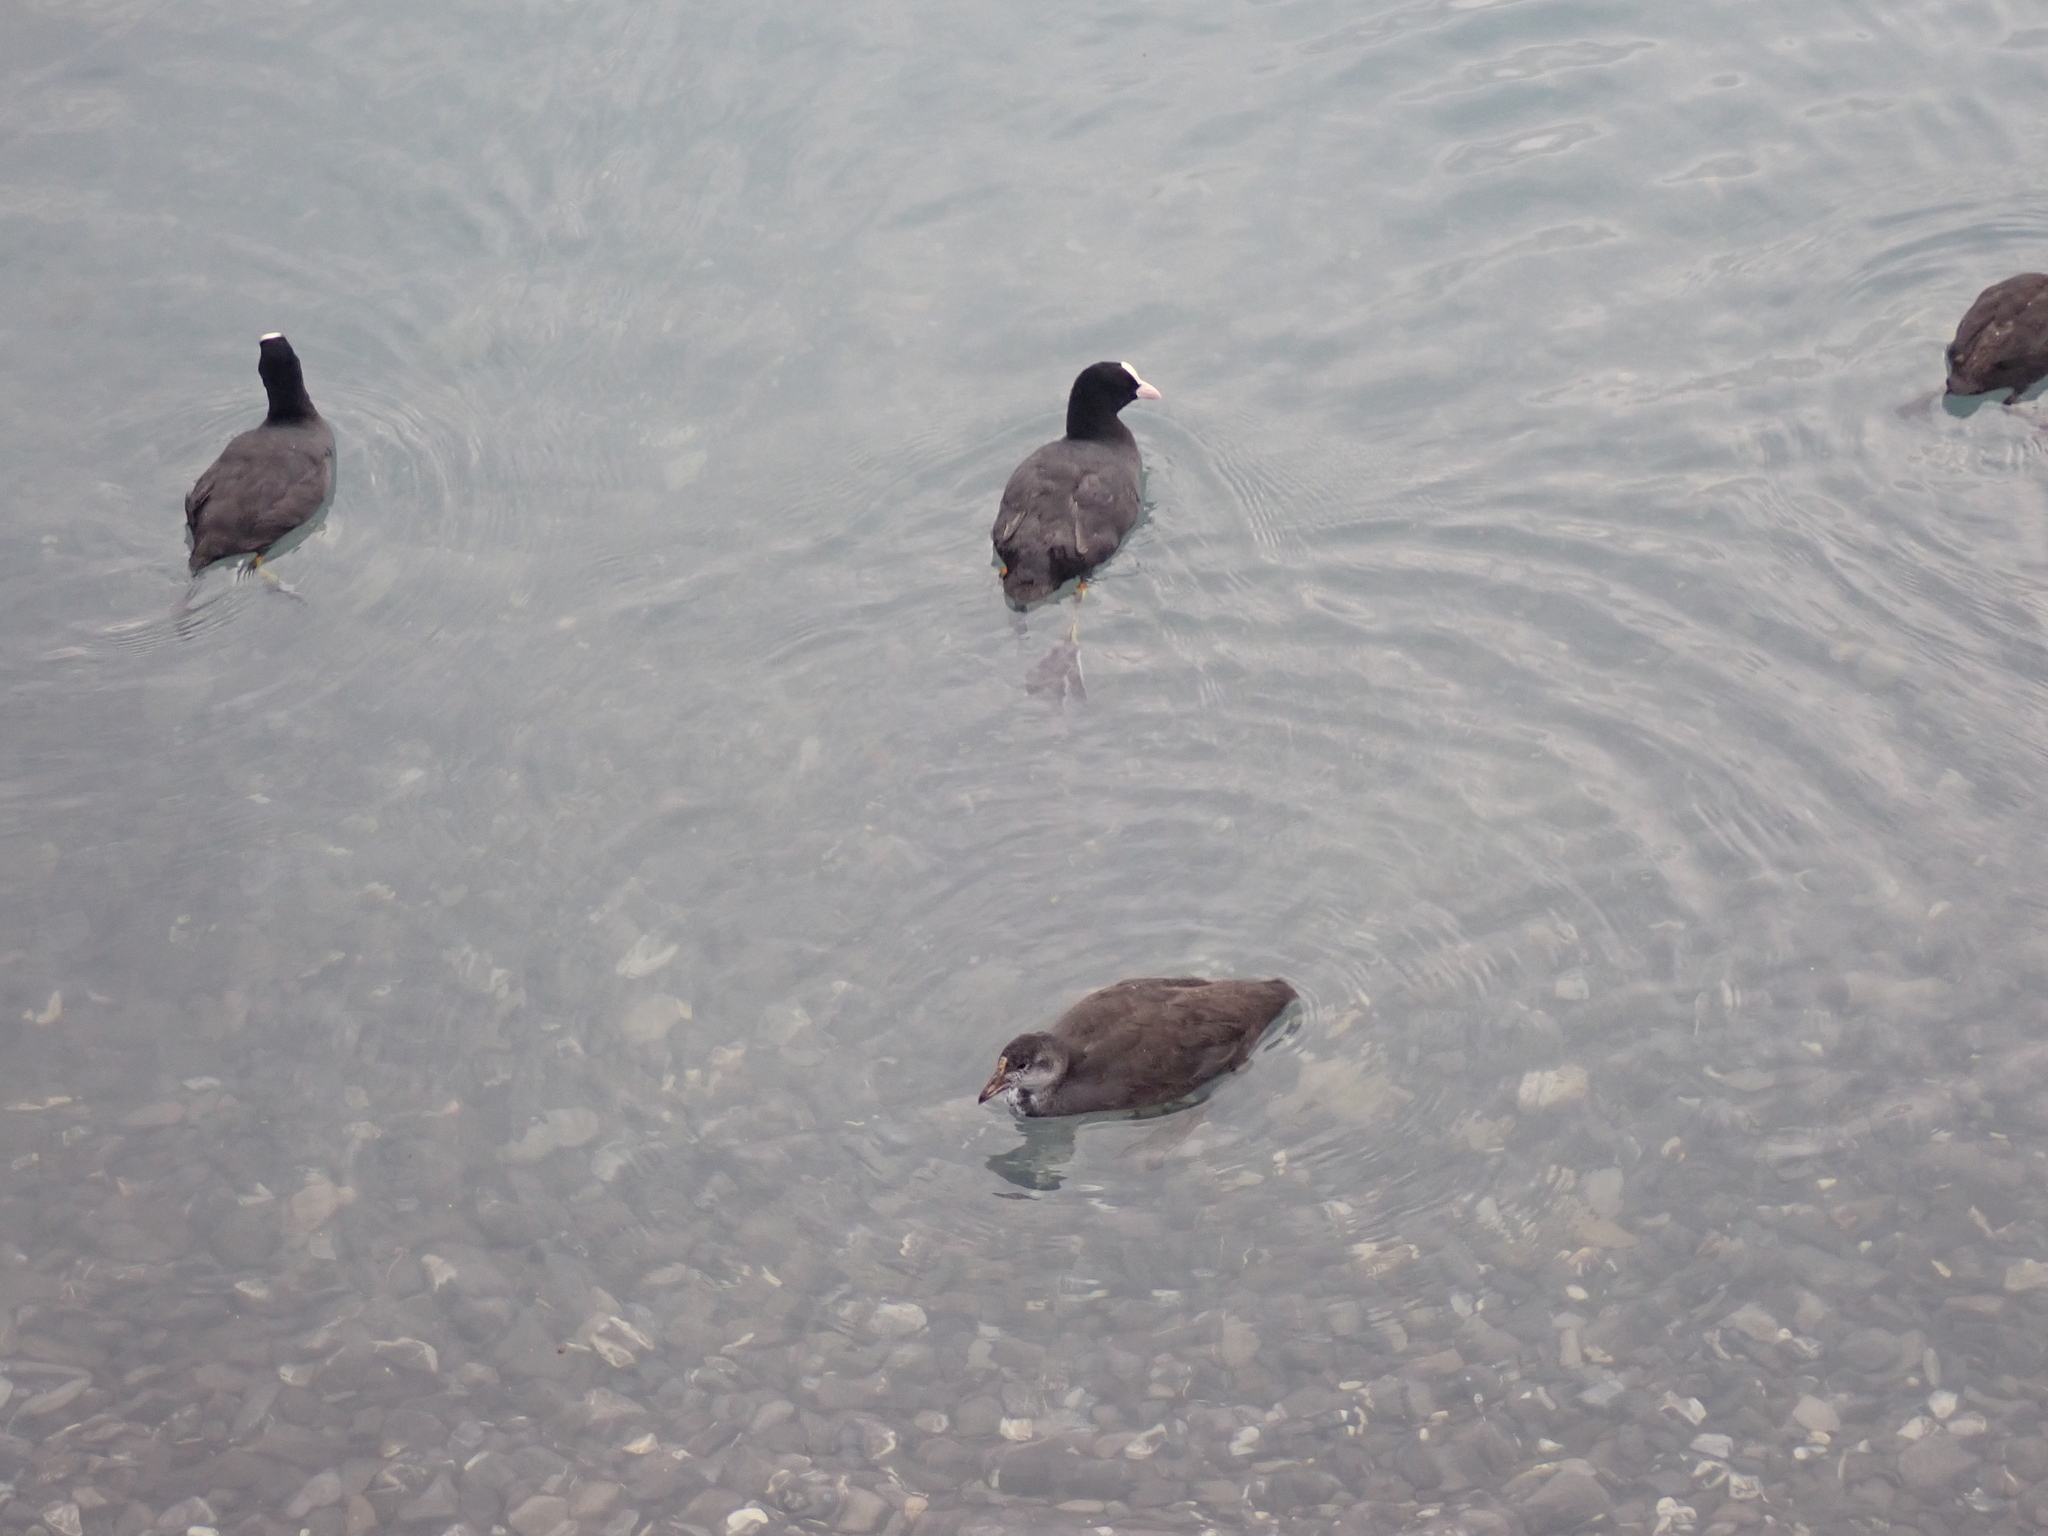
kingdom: Animalia
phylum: Chordata
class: Aves
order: Gruiformes
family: Rallidae
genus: Fulica
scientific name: Fulica atra
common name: Eurasian coot
